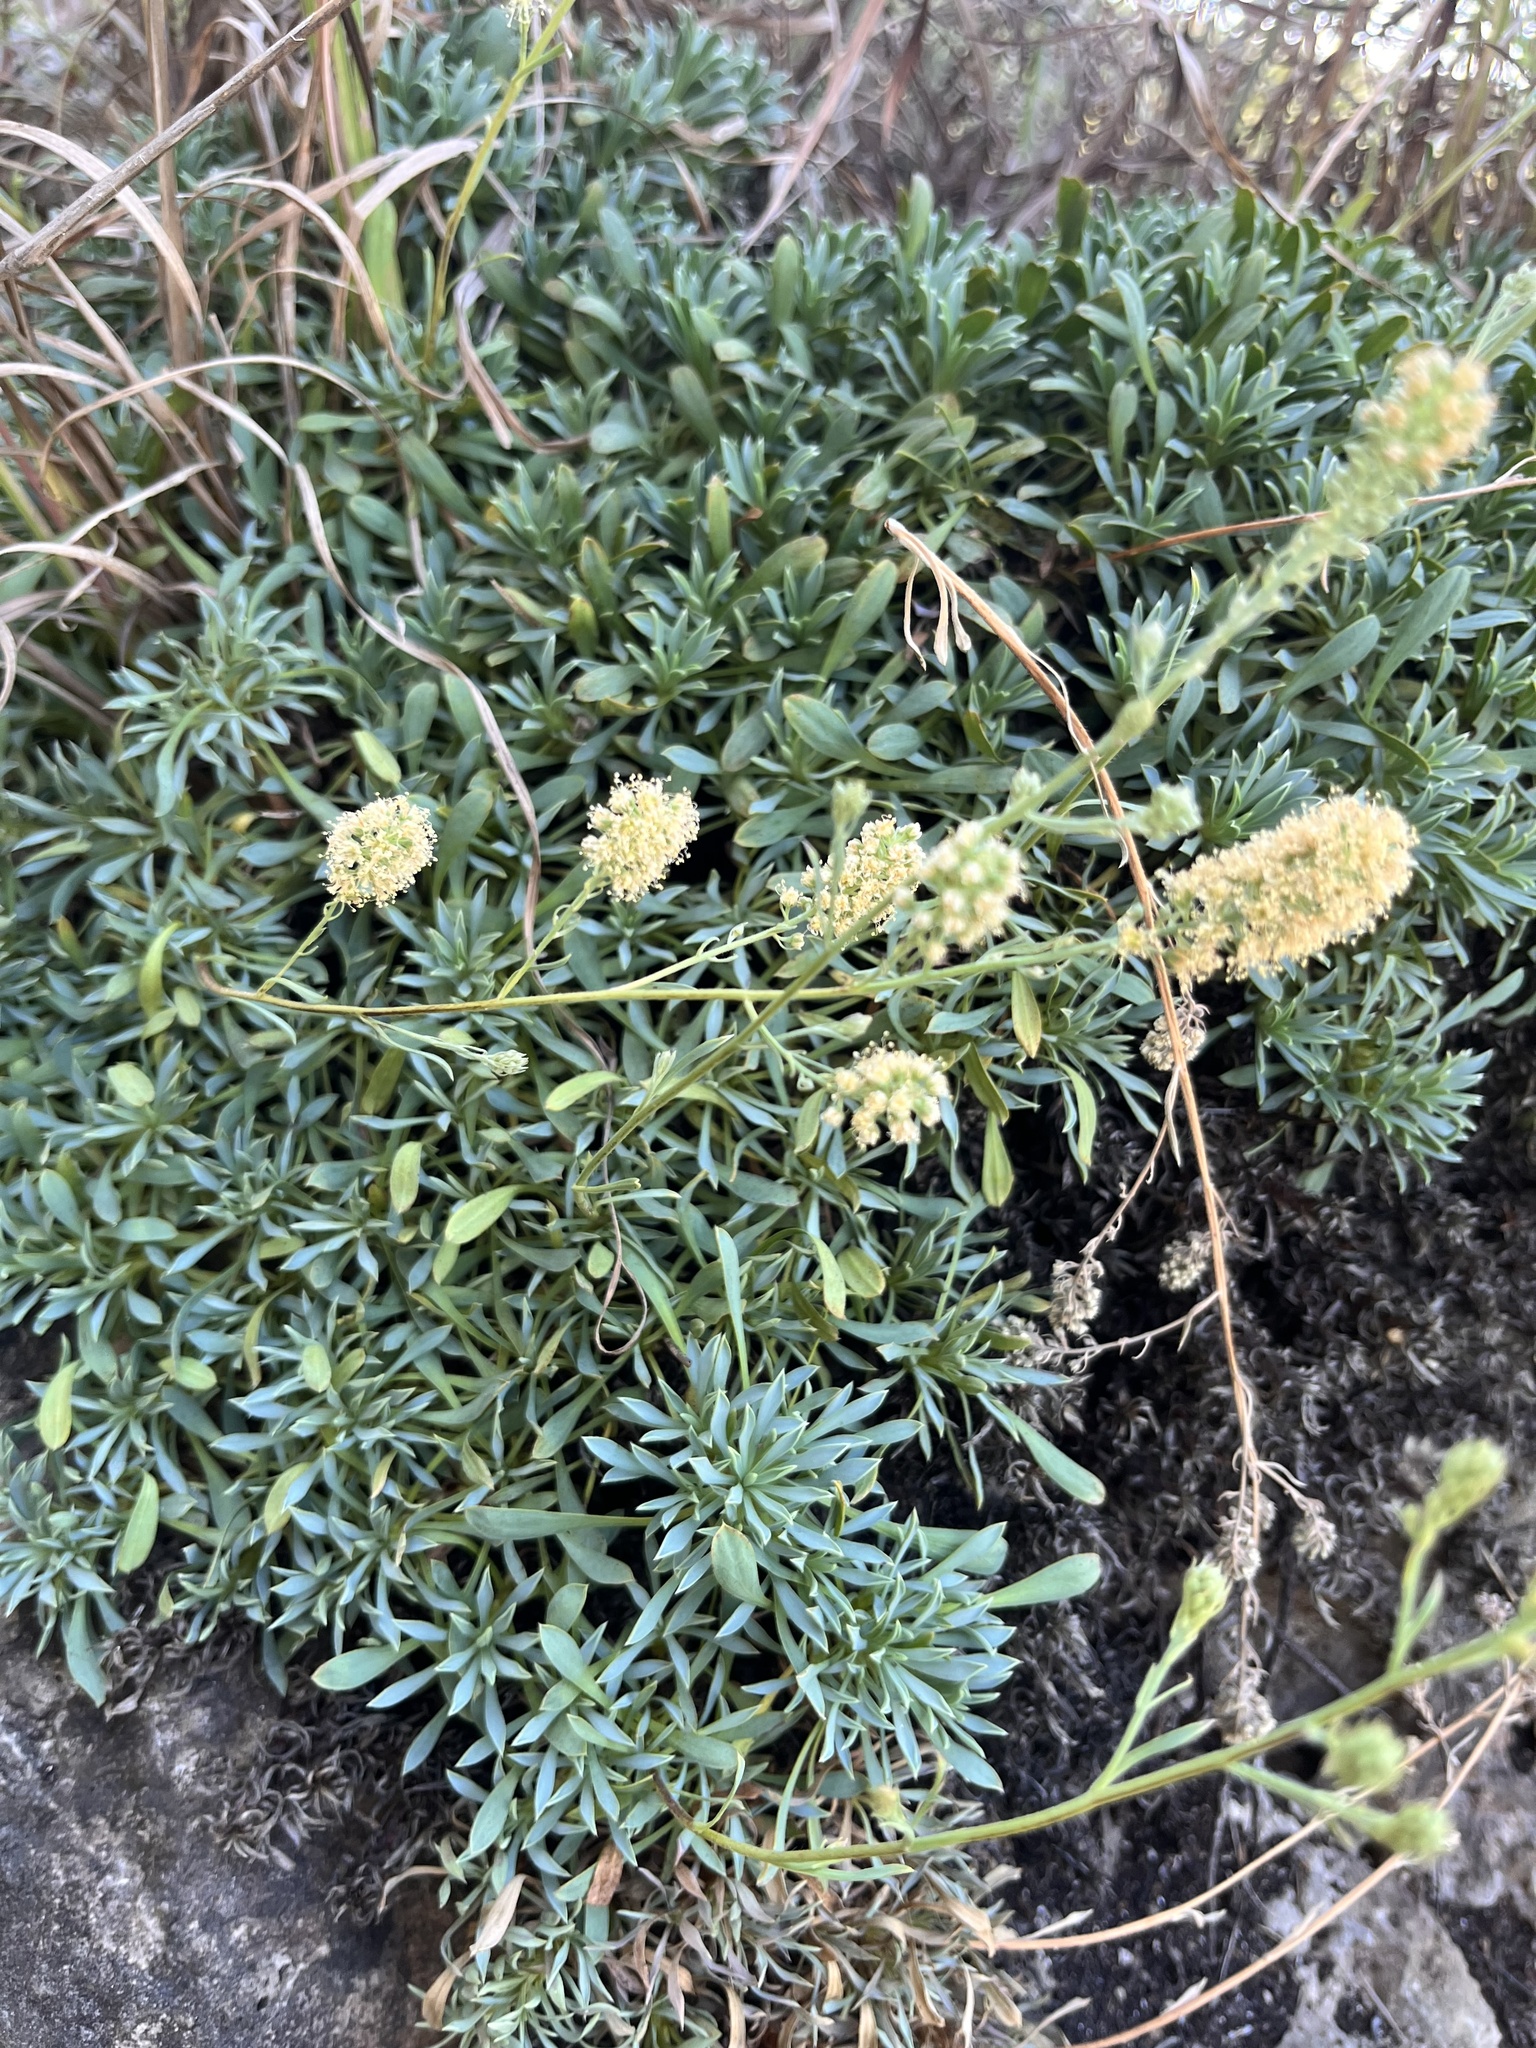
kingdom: Plantae
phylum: Tracheophyta
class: Magnoliopsida
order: Fabales
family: Fabaceae
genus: Dalea
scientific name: Dalea multiflora
